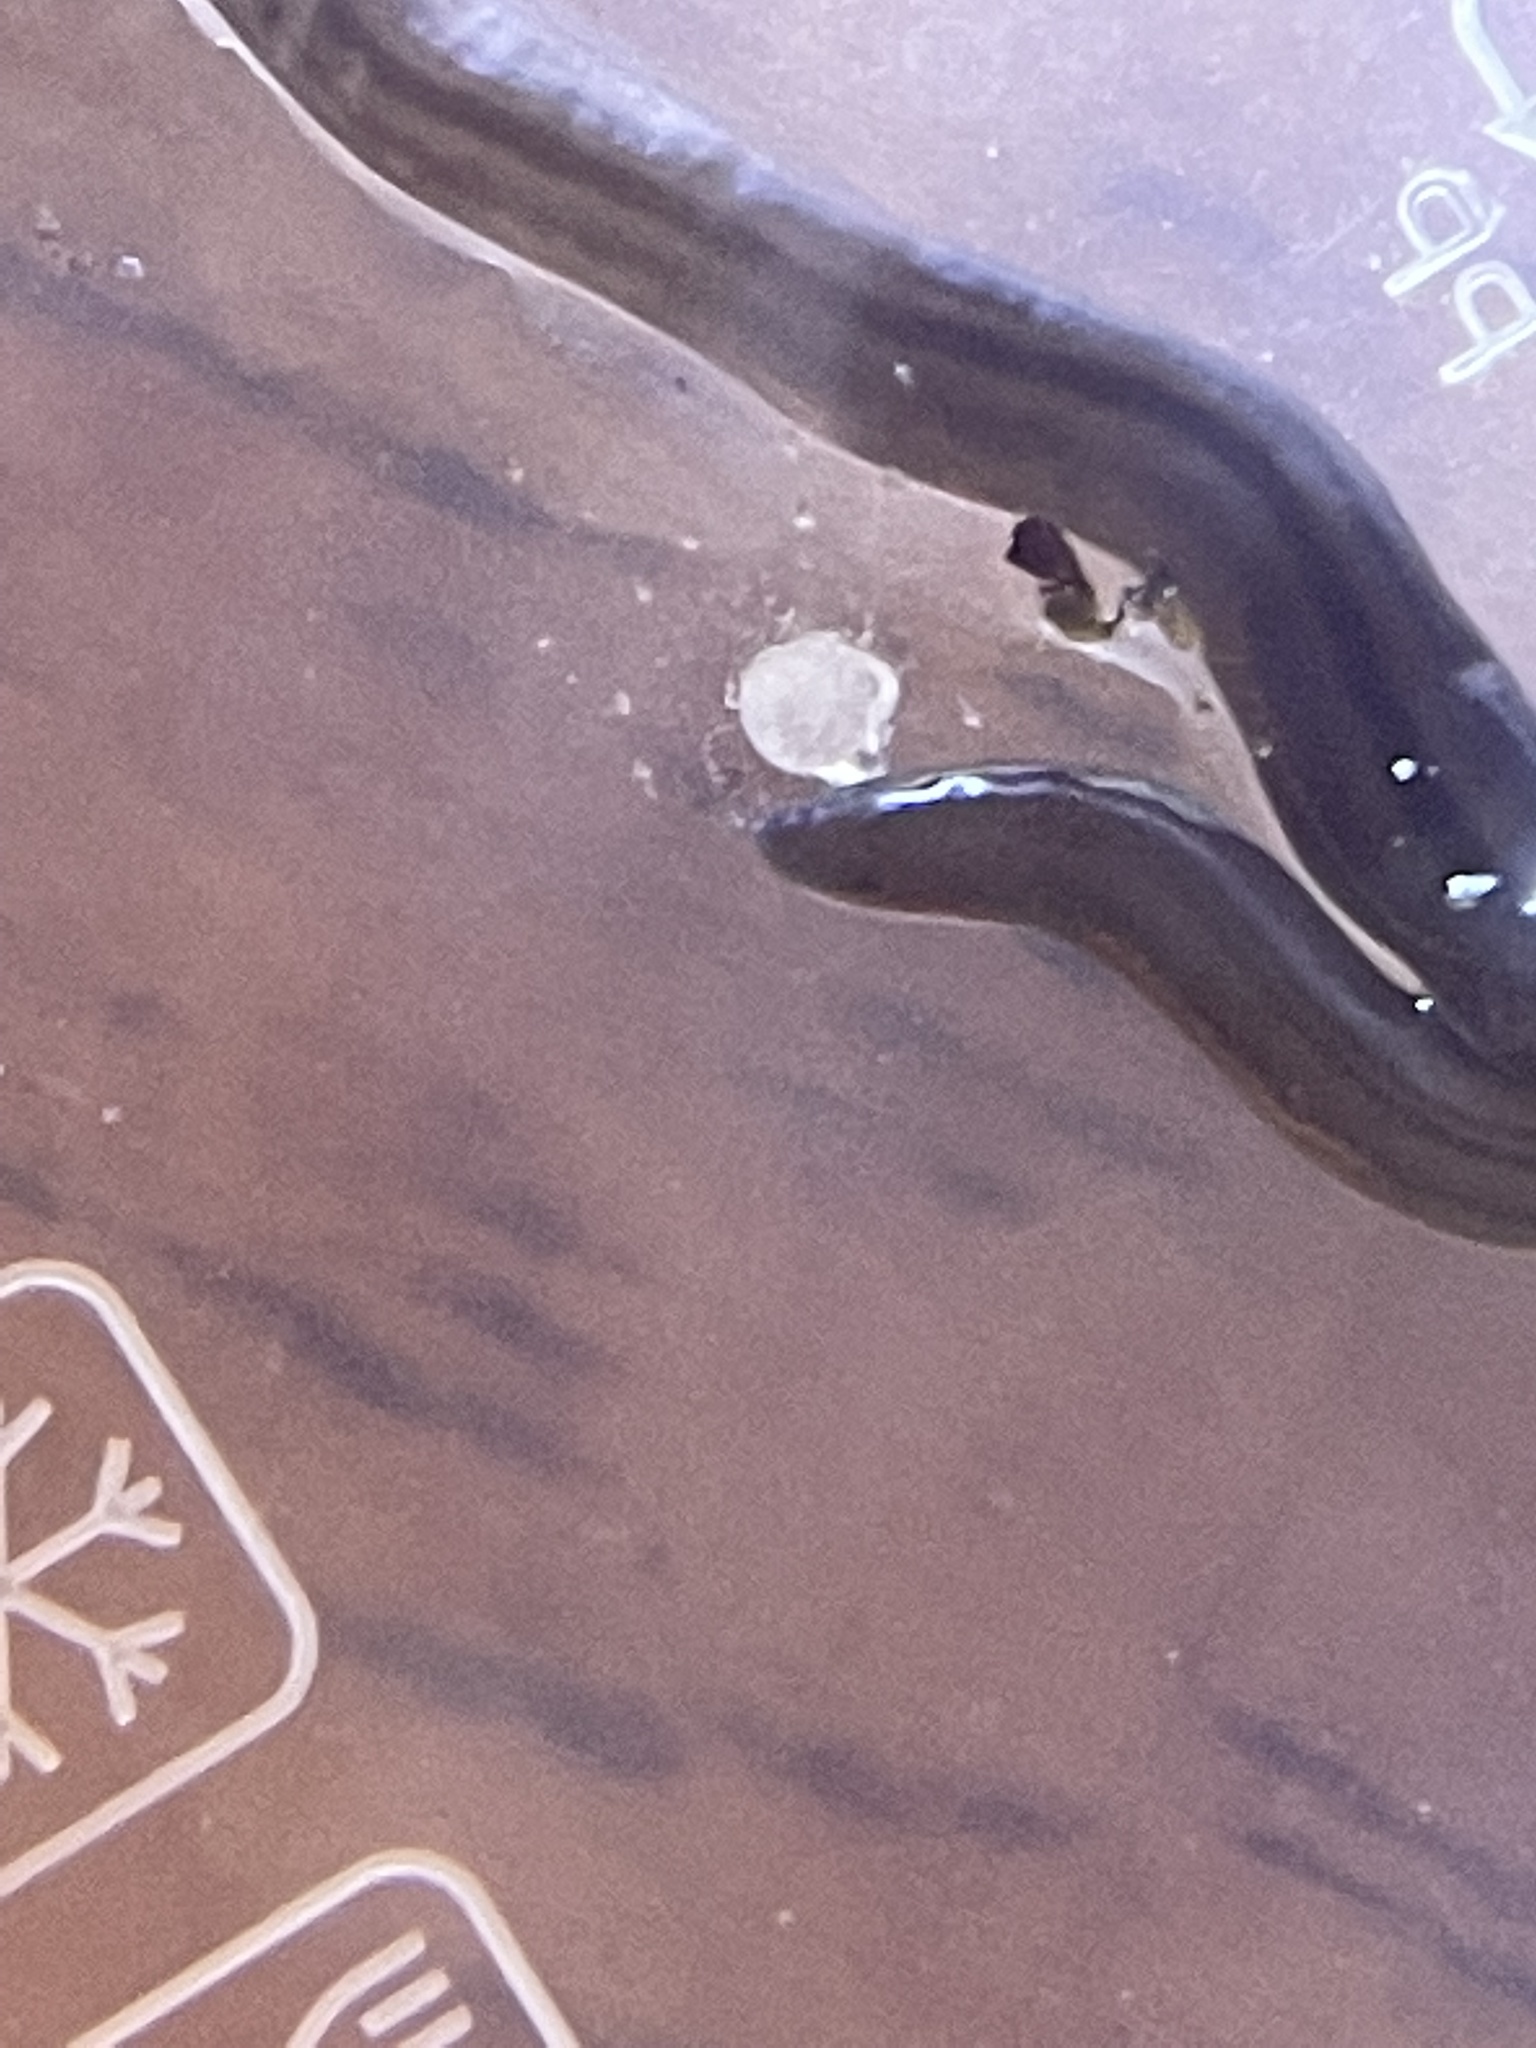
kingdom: Animalia
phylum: Platyhelminthes
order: Tricladida
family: Geoplanidae
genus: Dolichoplana
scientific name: Dolichoplana striata
